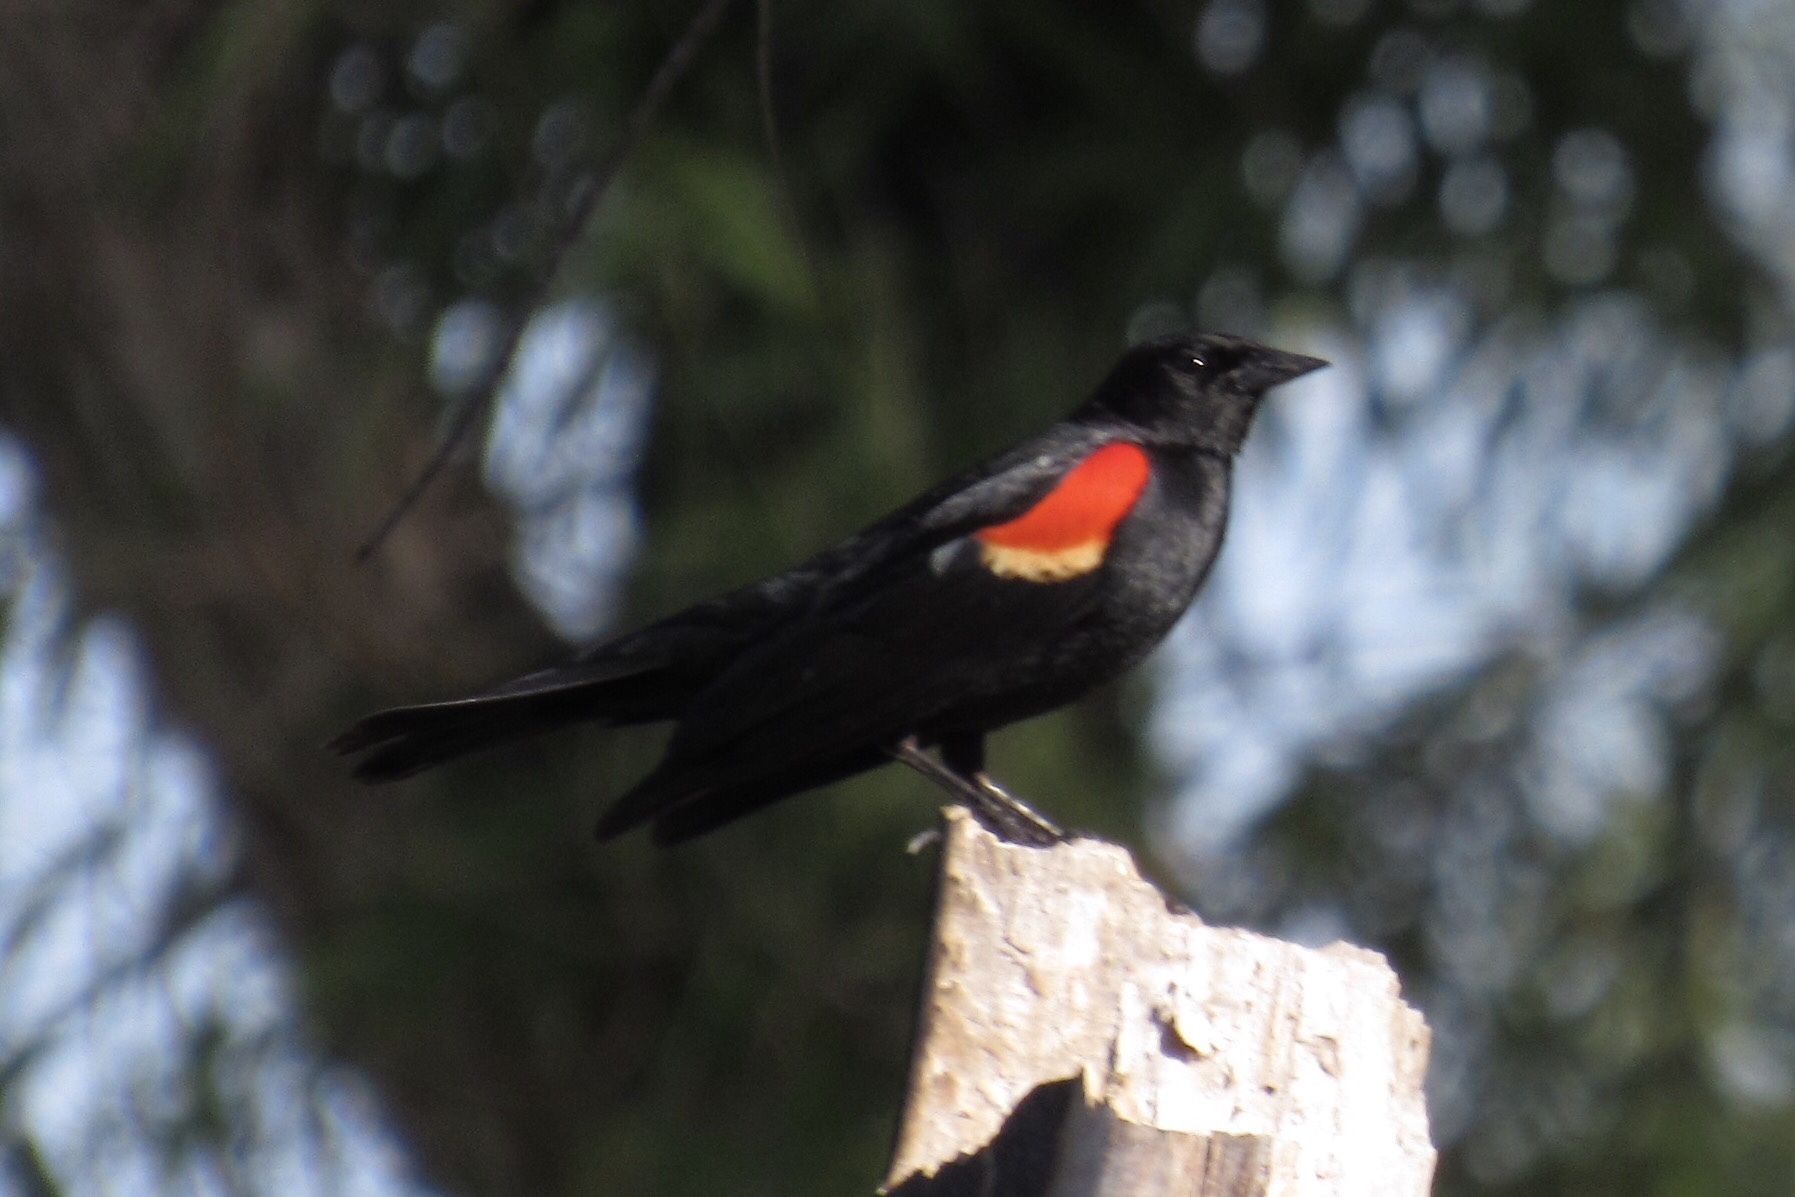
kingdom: Animalia
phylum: Chordata
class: Aves
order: Passeriformes
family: Icteridae
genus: Agelaius
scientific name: Agelaius phoeniceus
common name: Red-winged blackbird
